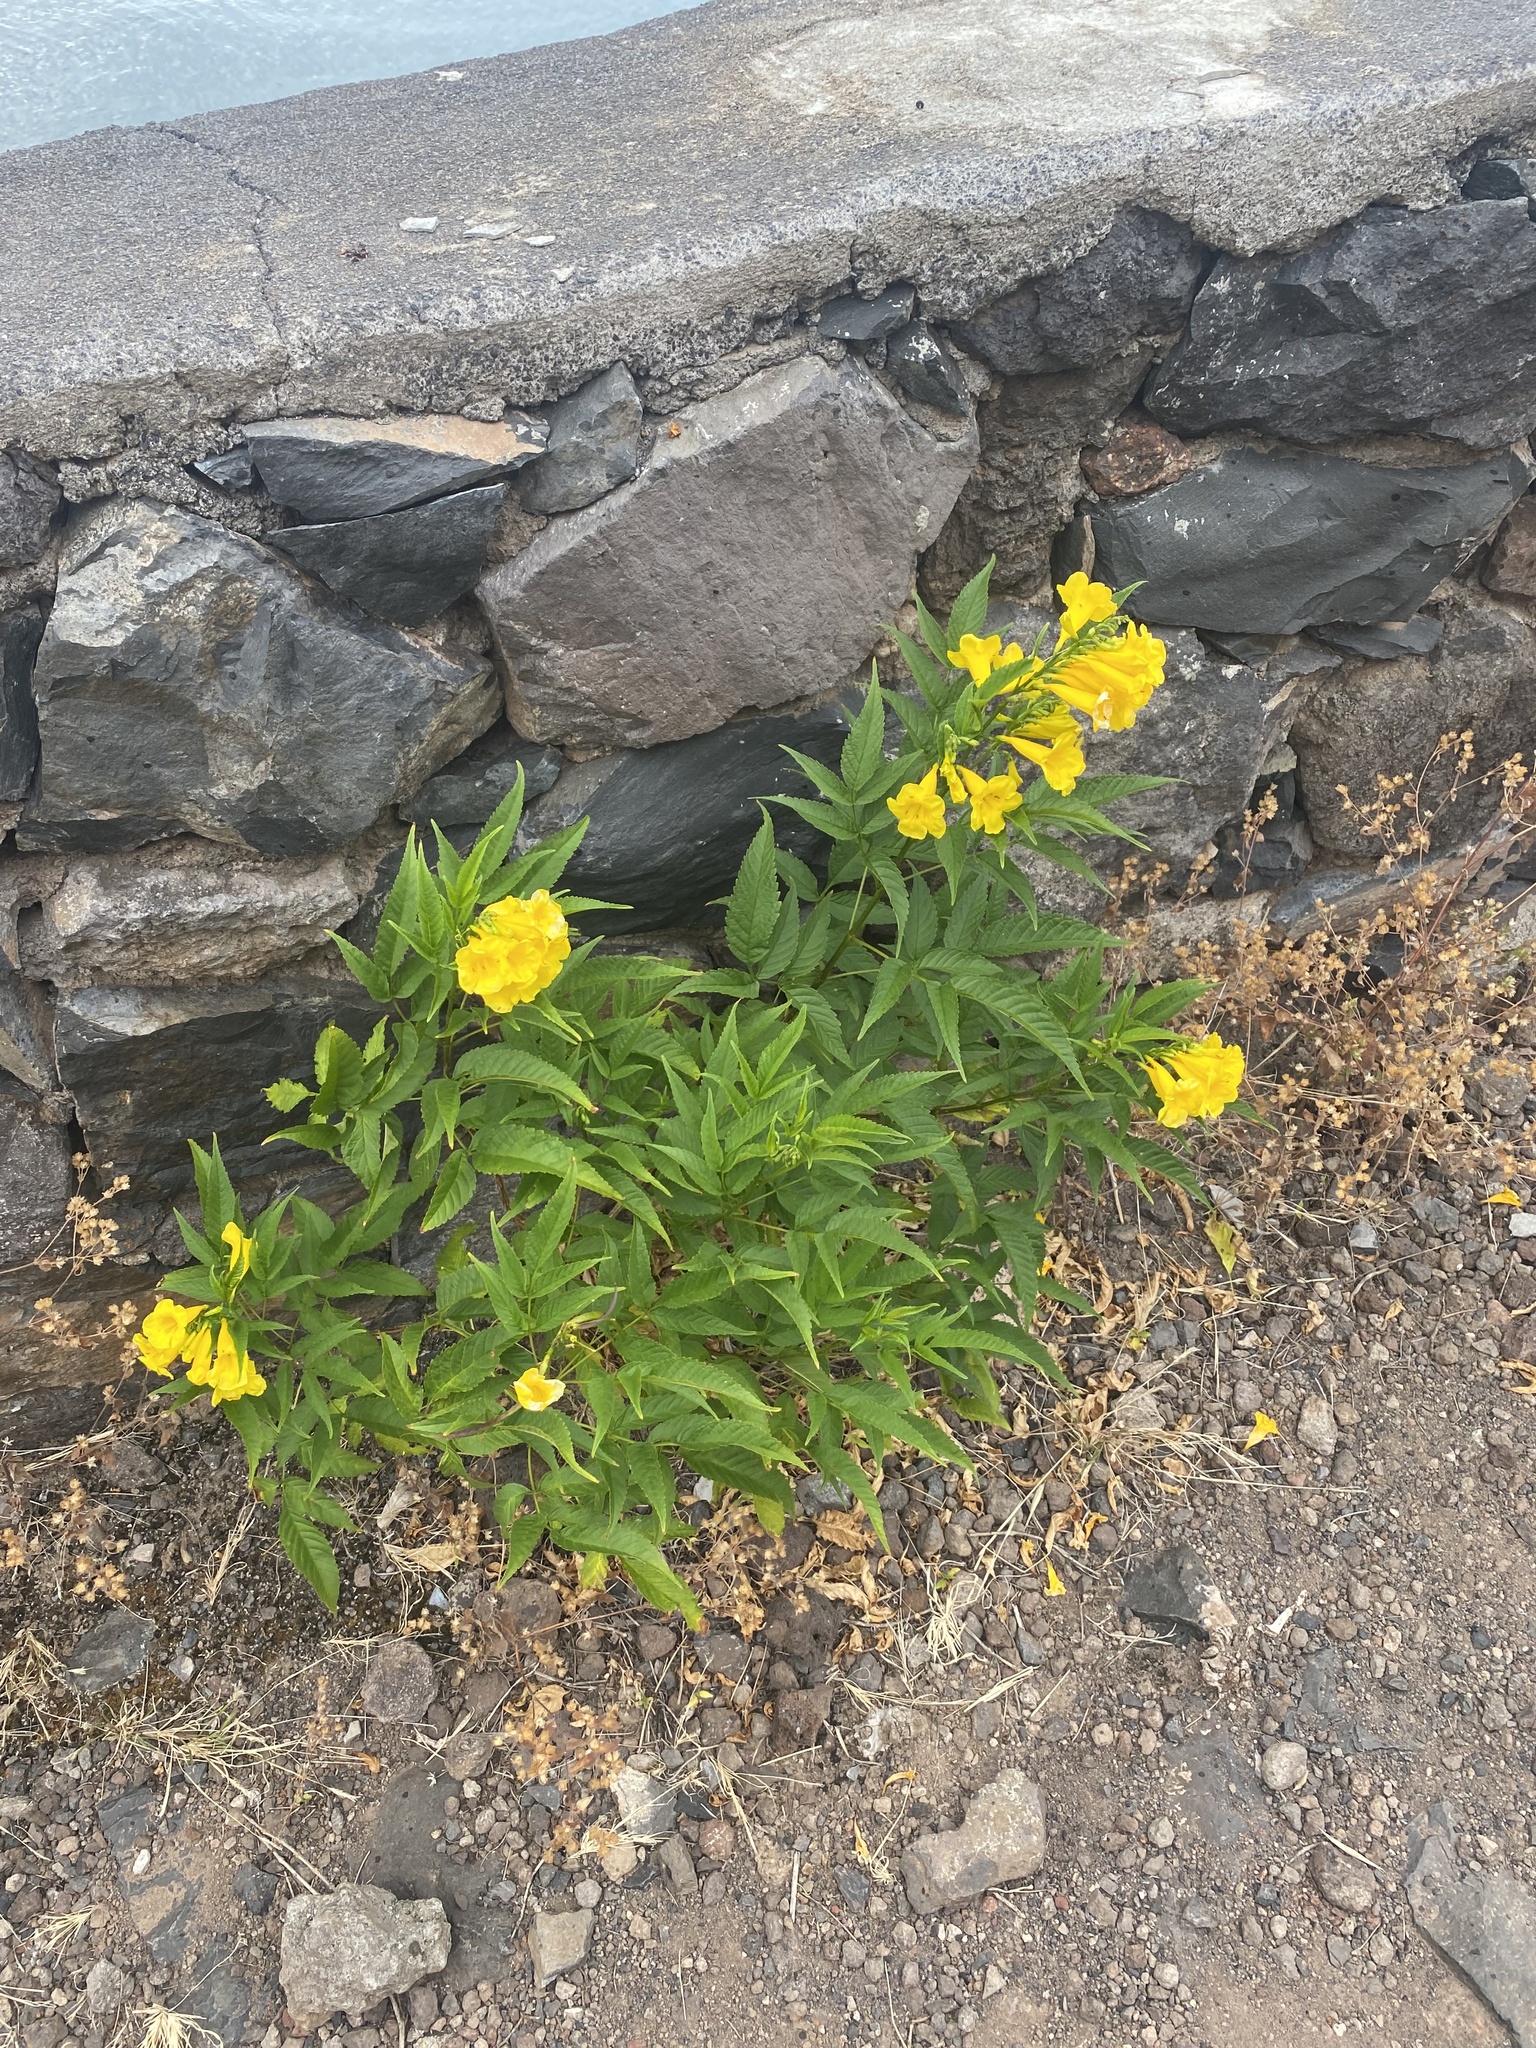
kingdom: Plantae
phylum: Tracheophyta
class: Magnoliopsida
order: Lamiales
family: Bignoniaceae
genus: Tecoma
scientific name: Tecoma stans
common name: Yellow trumpetbush
